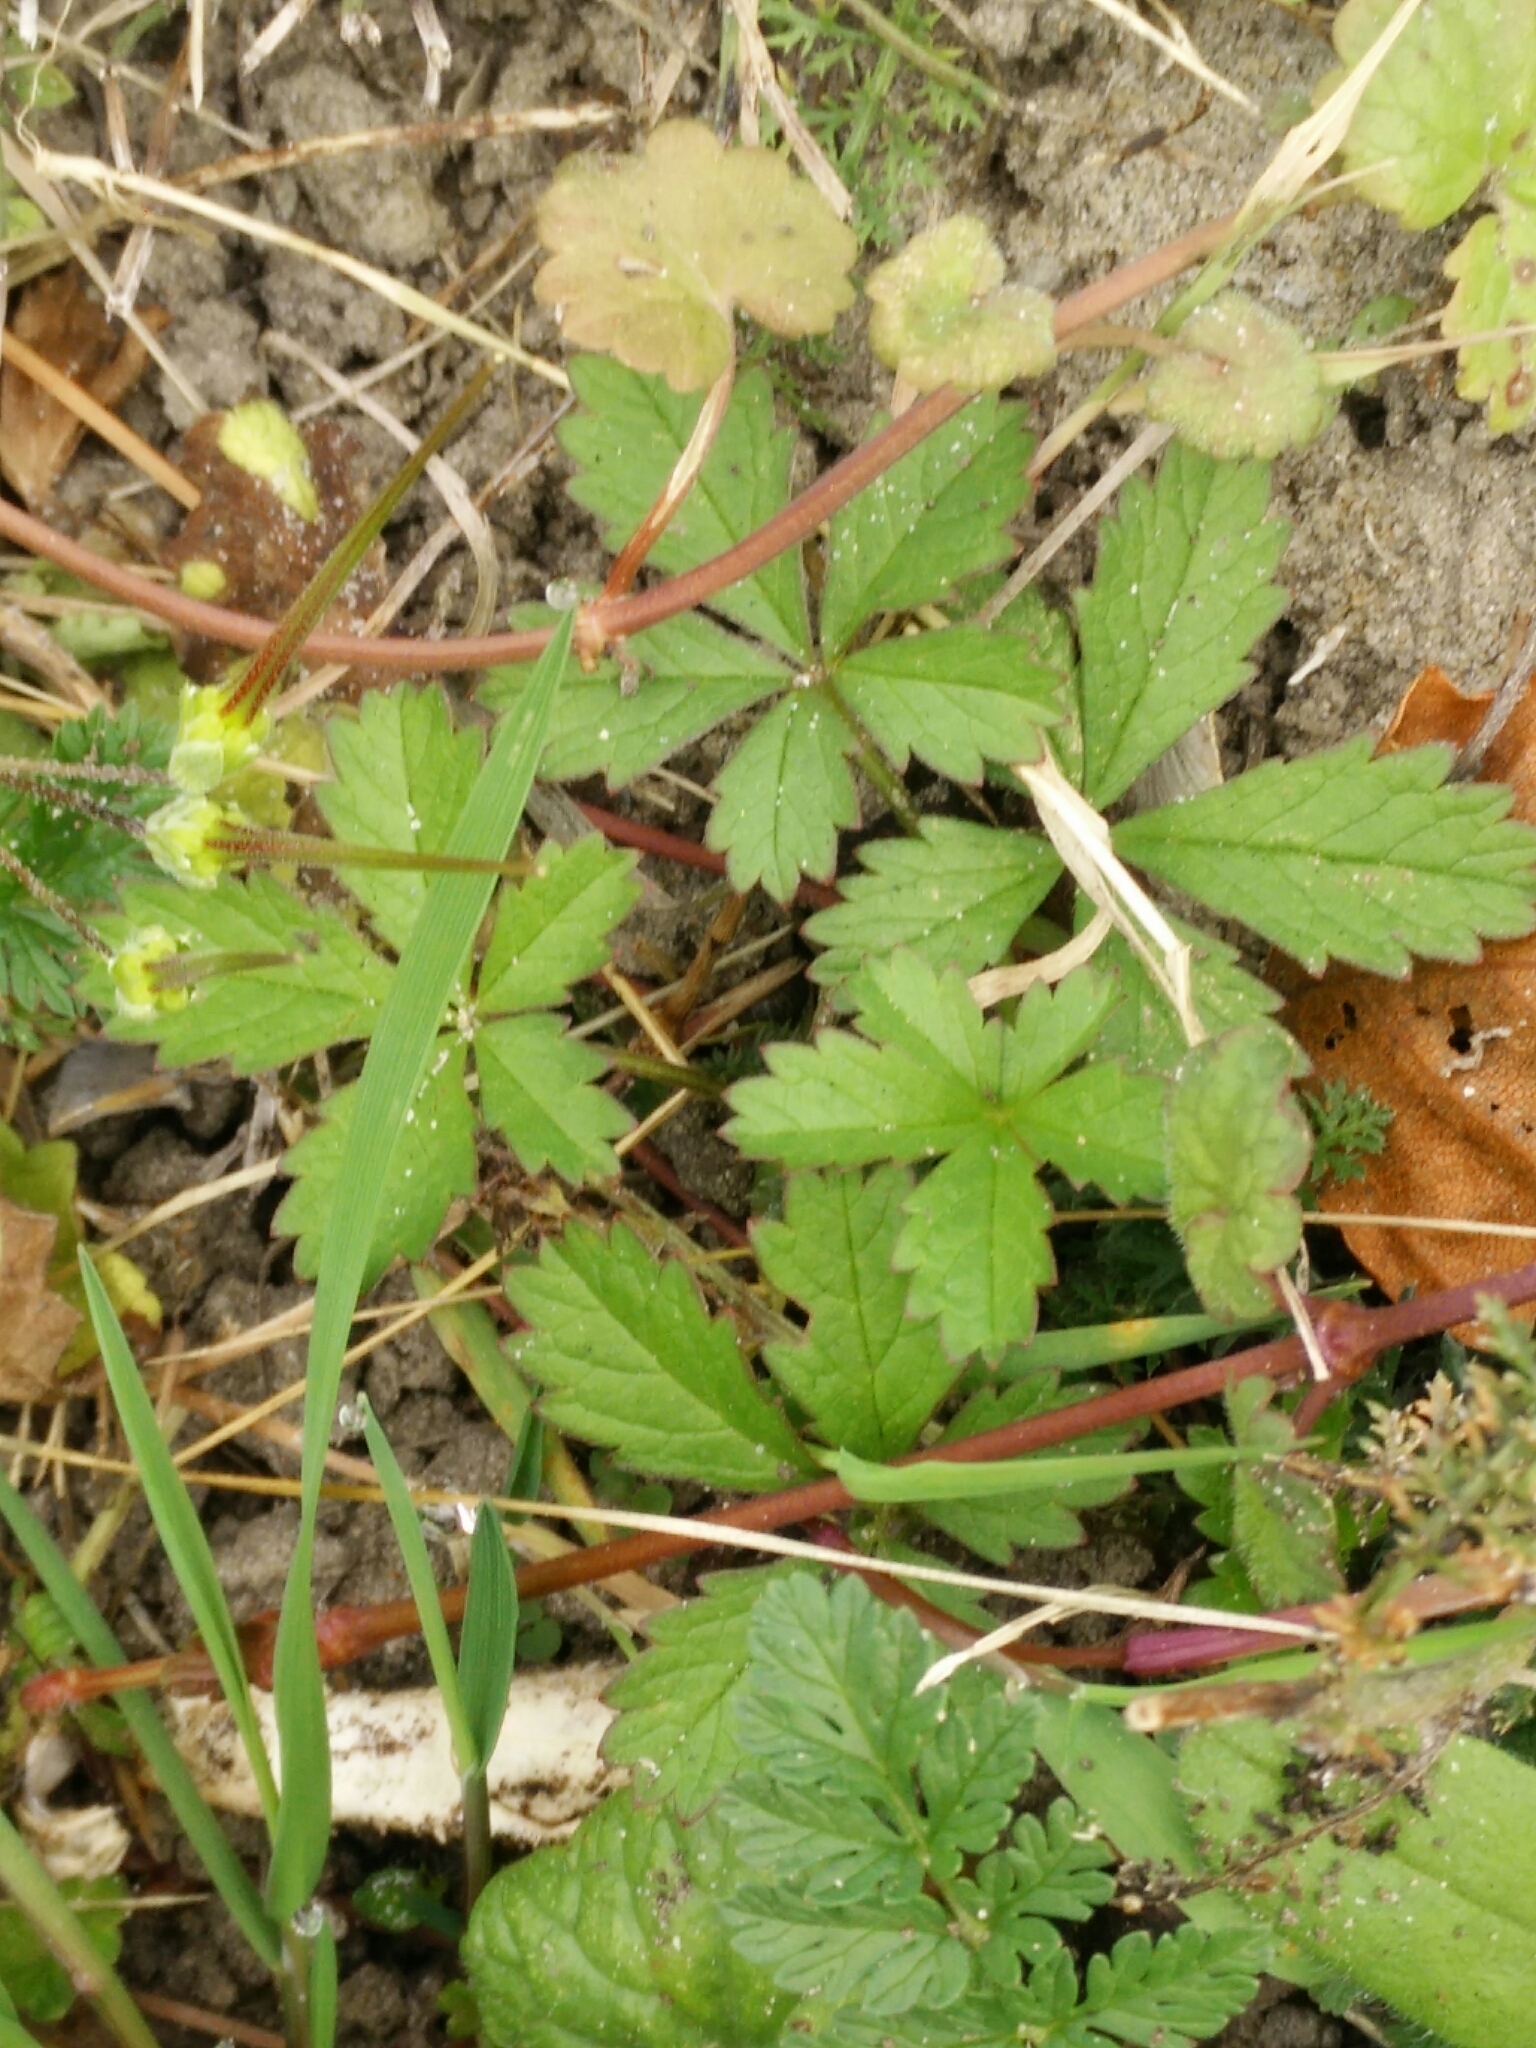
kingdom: Plantae
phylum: Tracheophyta
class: Magnoliopsida
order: Rosales
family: Rosaceae
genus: Potentilla
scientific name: Potentilla reptans
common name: Creeping cinquefoil
